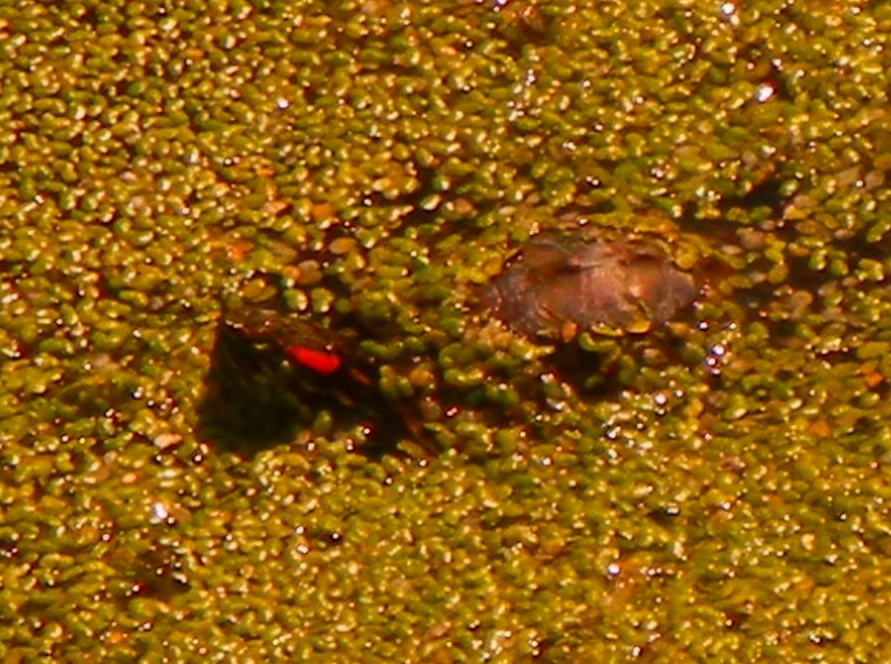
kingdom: Animalia
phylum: Chordata
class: Testudines
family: Emydidae
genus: Trachemys
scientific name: Trachemys scripta
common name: Slider
